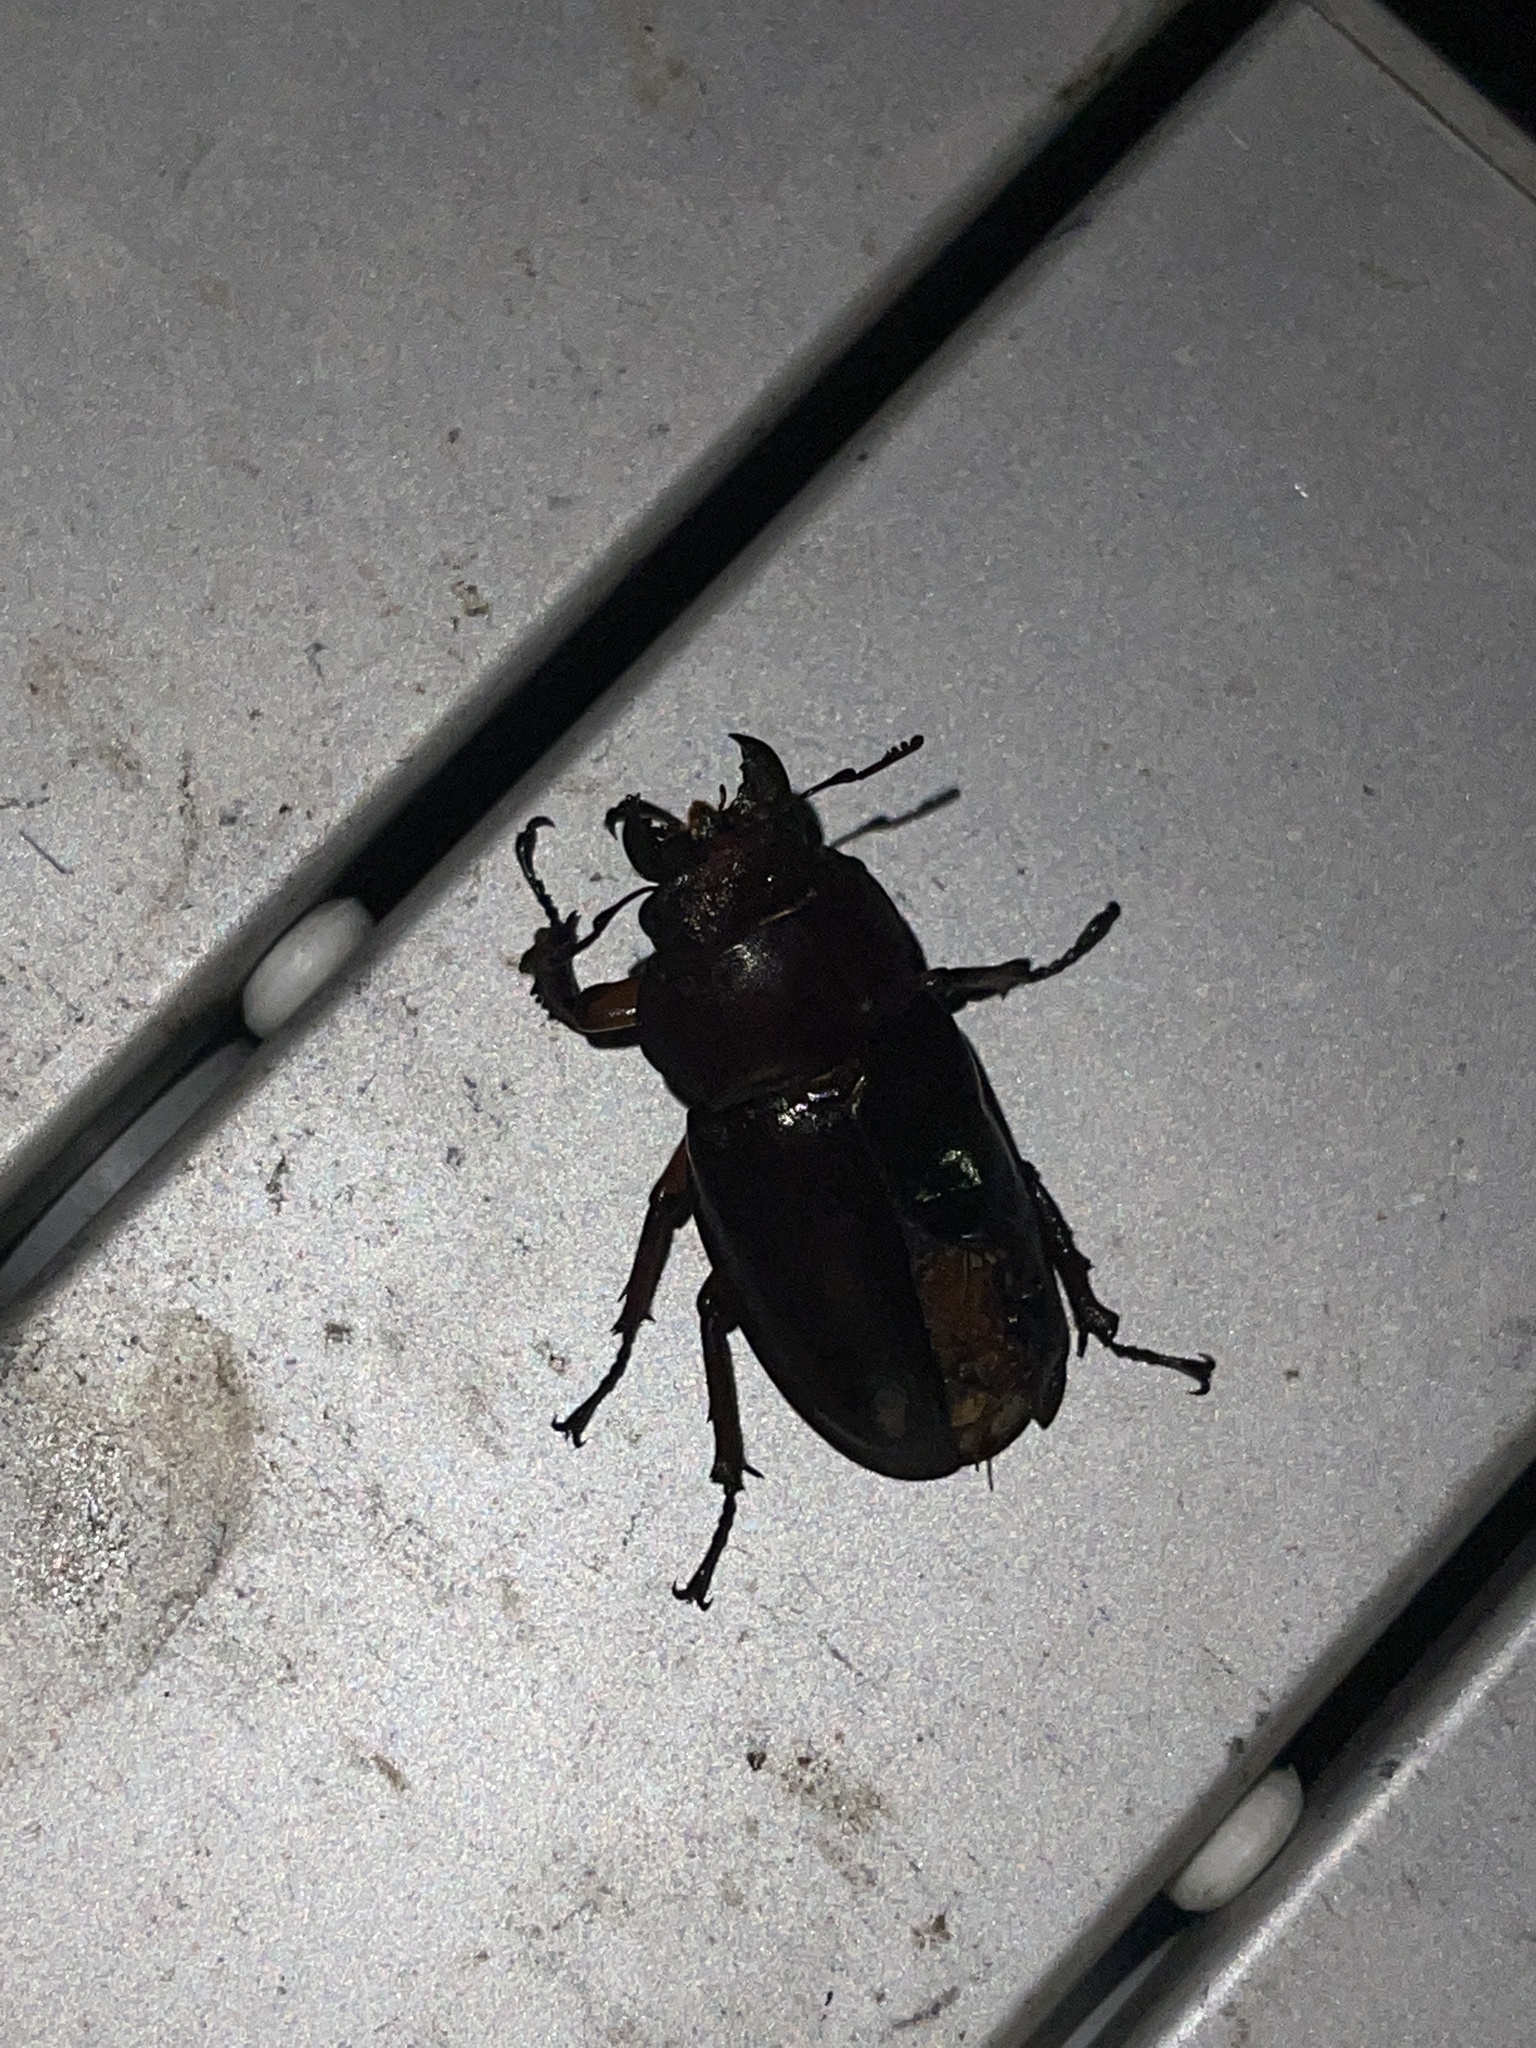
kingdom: Animalia
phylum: Arthropoda
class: Insecta
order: Coleoptera
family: Lucanidae
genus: Lucanus
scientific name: Lucanus capreolus
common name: Stag beetle
